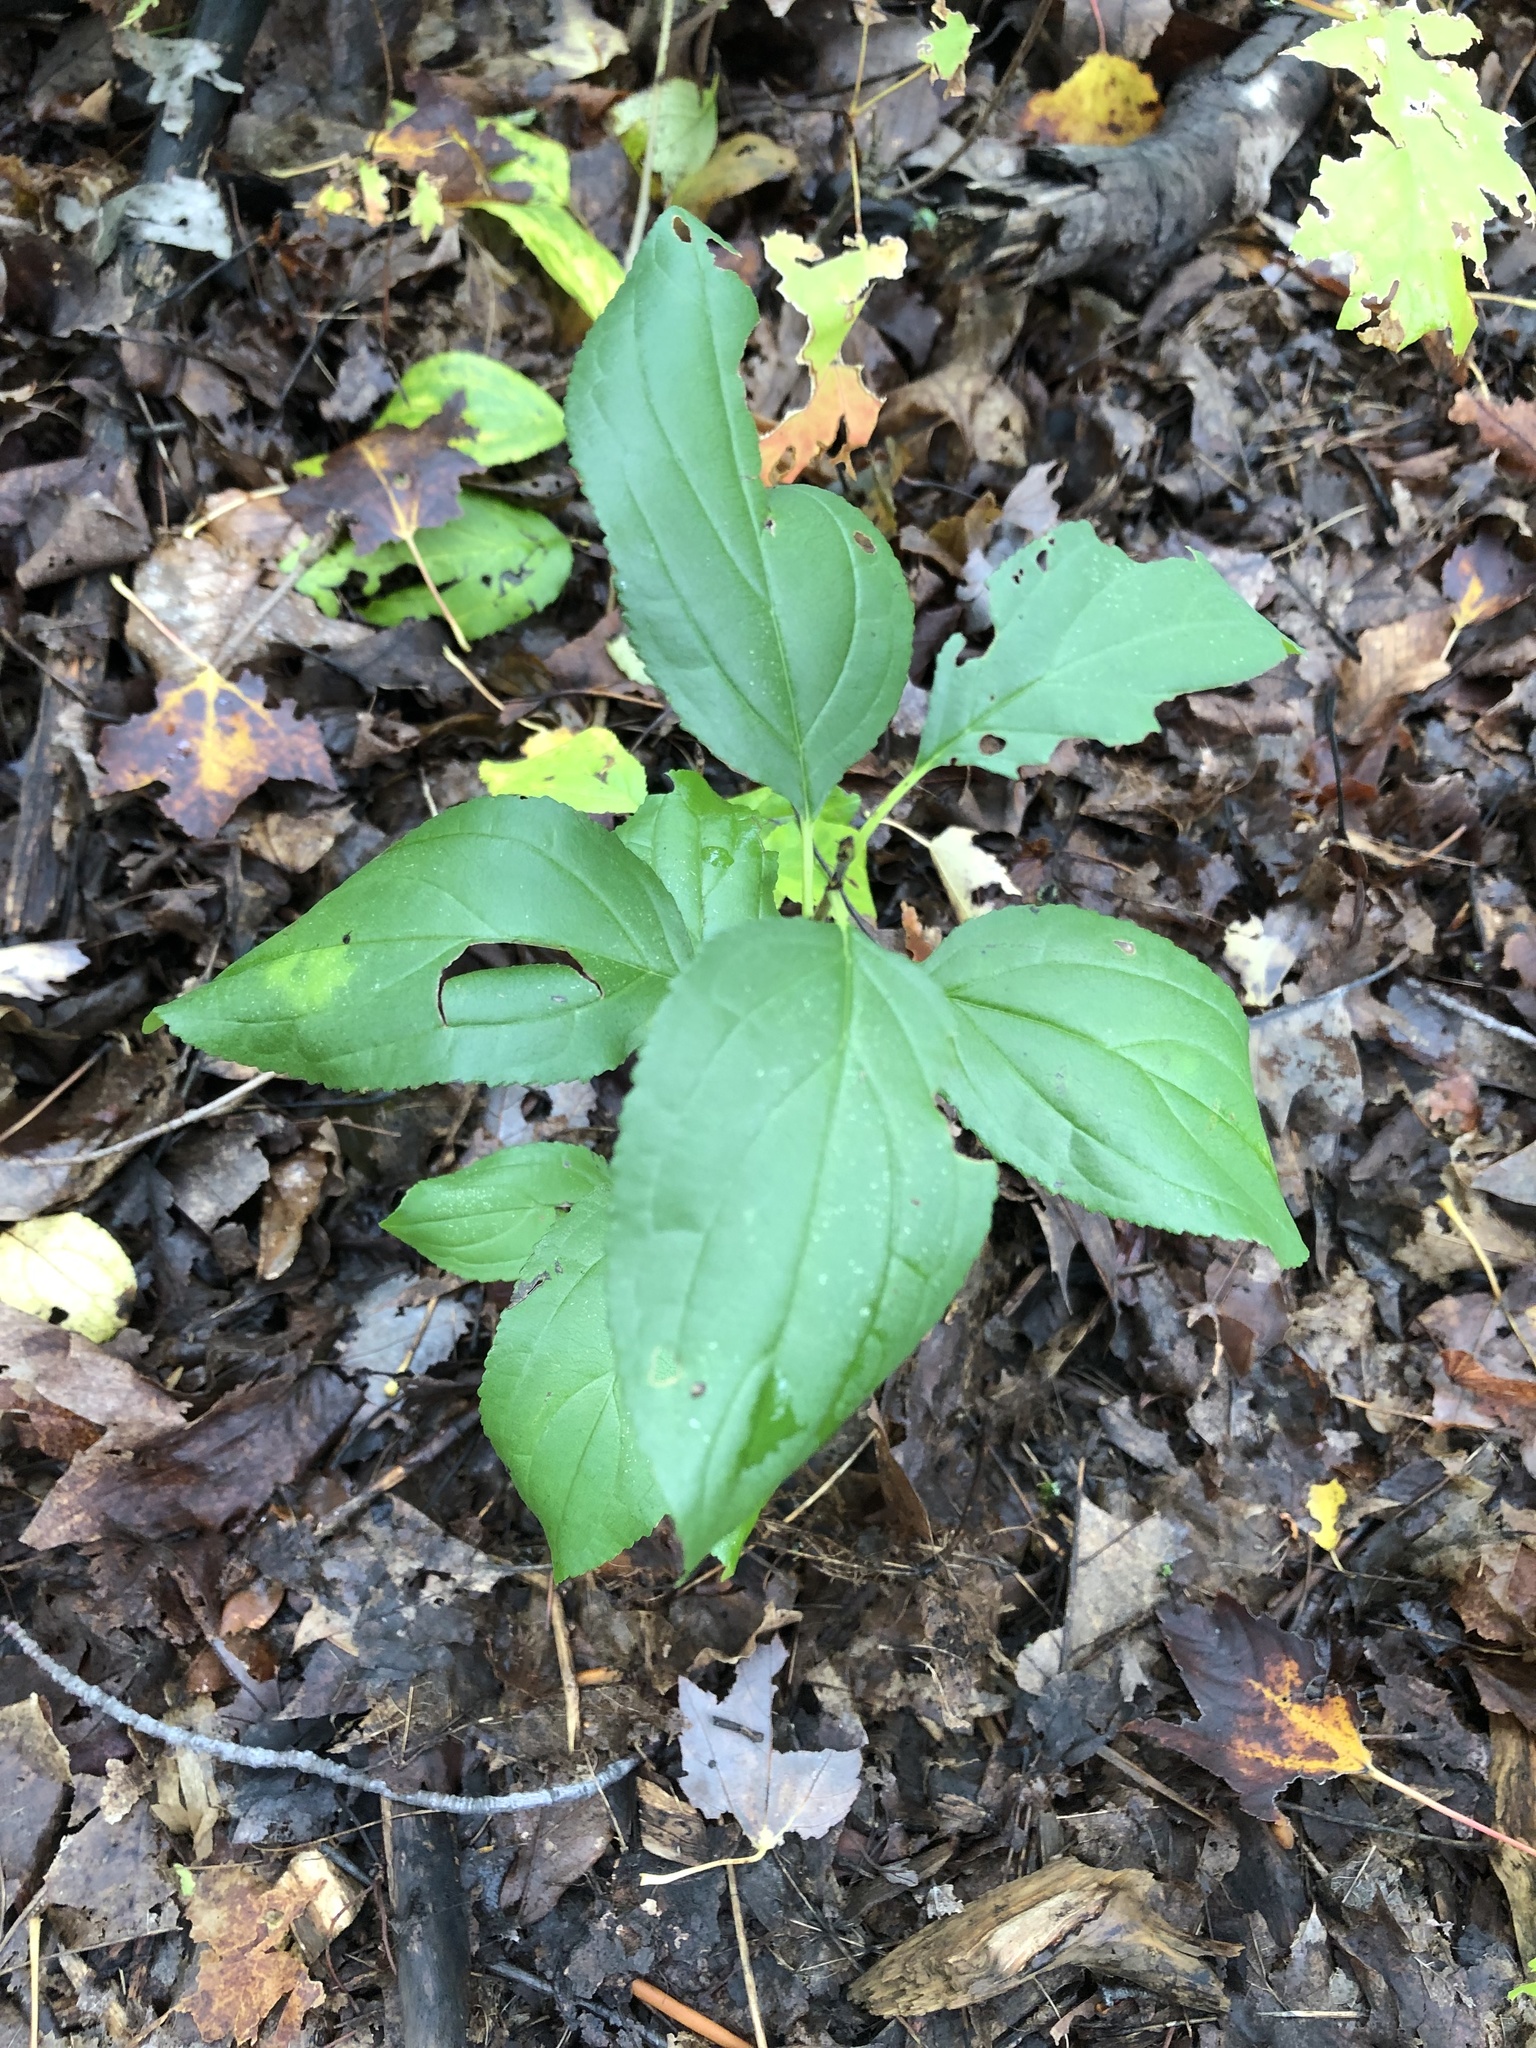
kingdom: Plantae
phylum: Tracheophyta
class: Magnoliopsida
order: Rosales
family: Rhamnaceae
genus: Rhamnus
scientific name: Rhamnus cathartica
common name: Common buckthorn
